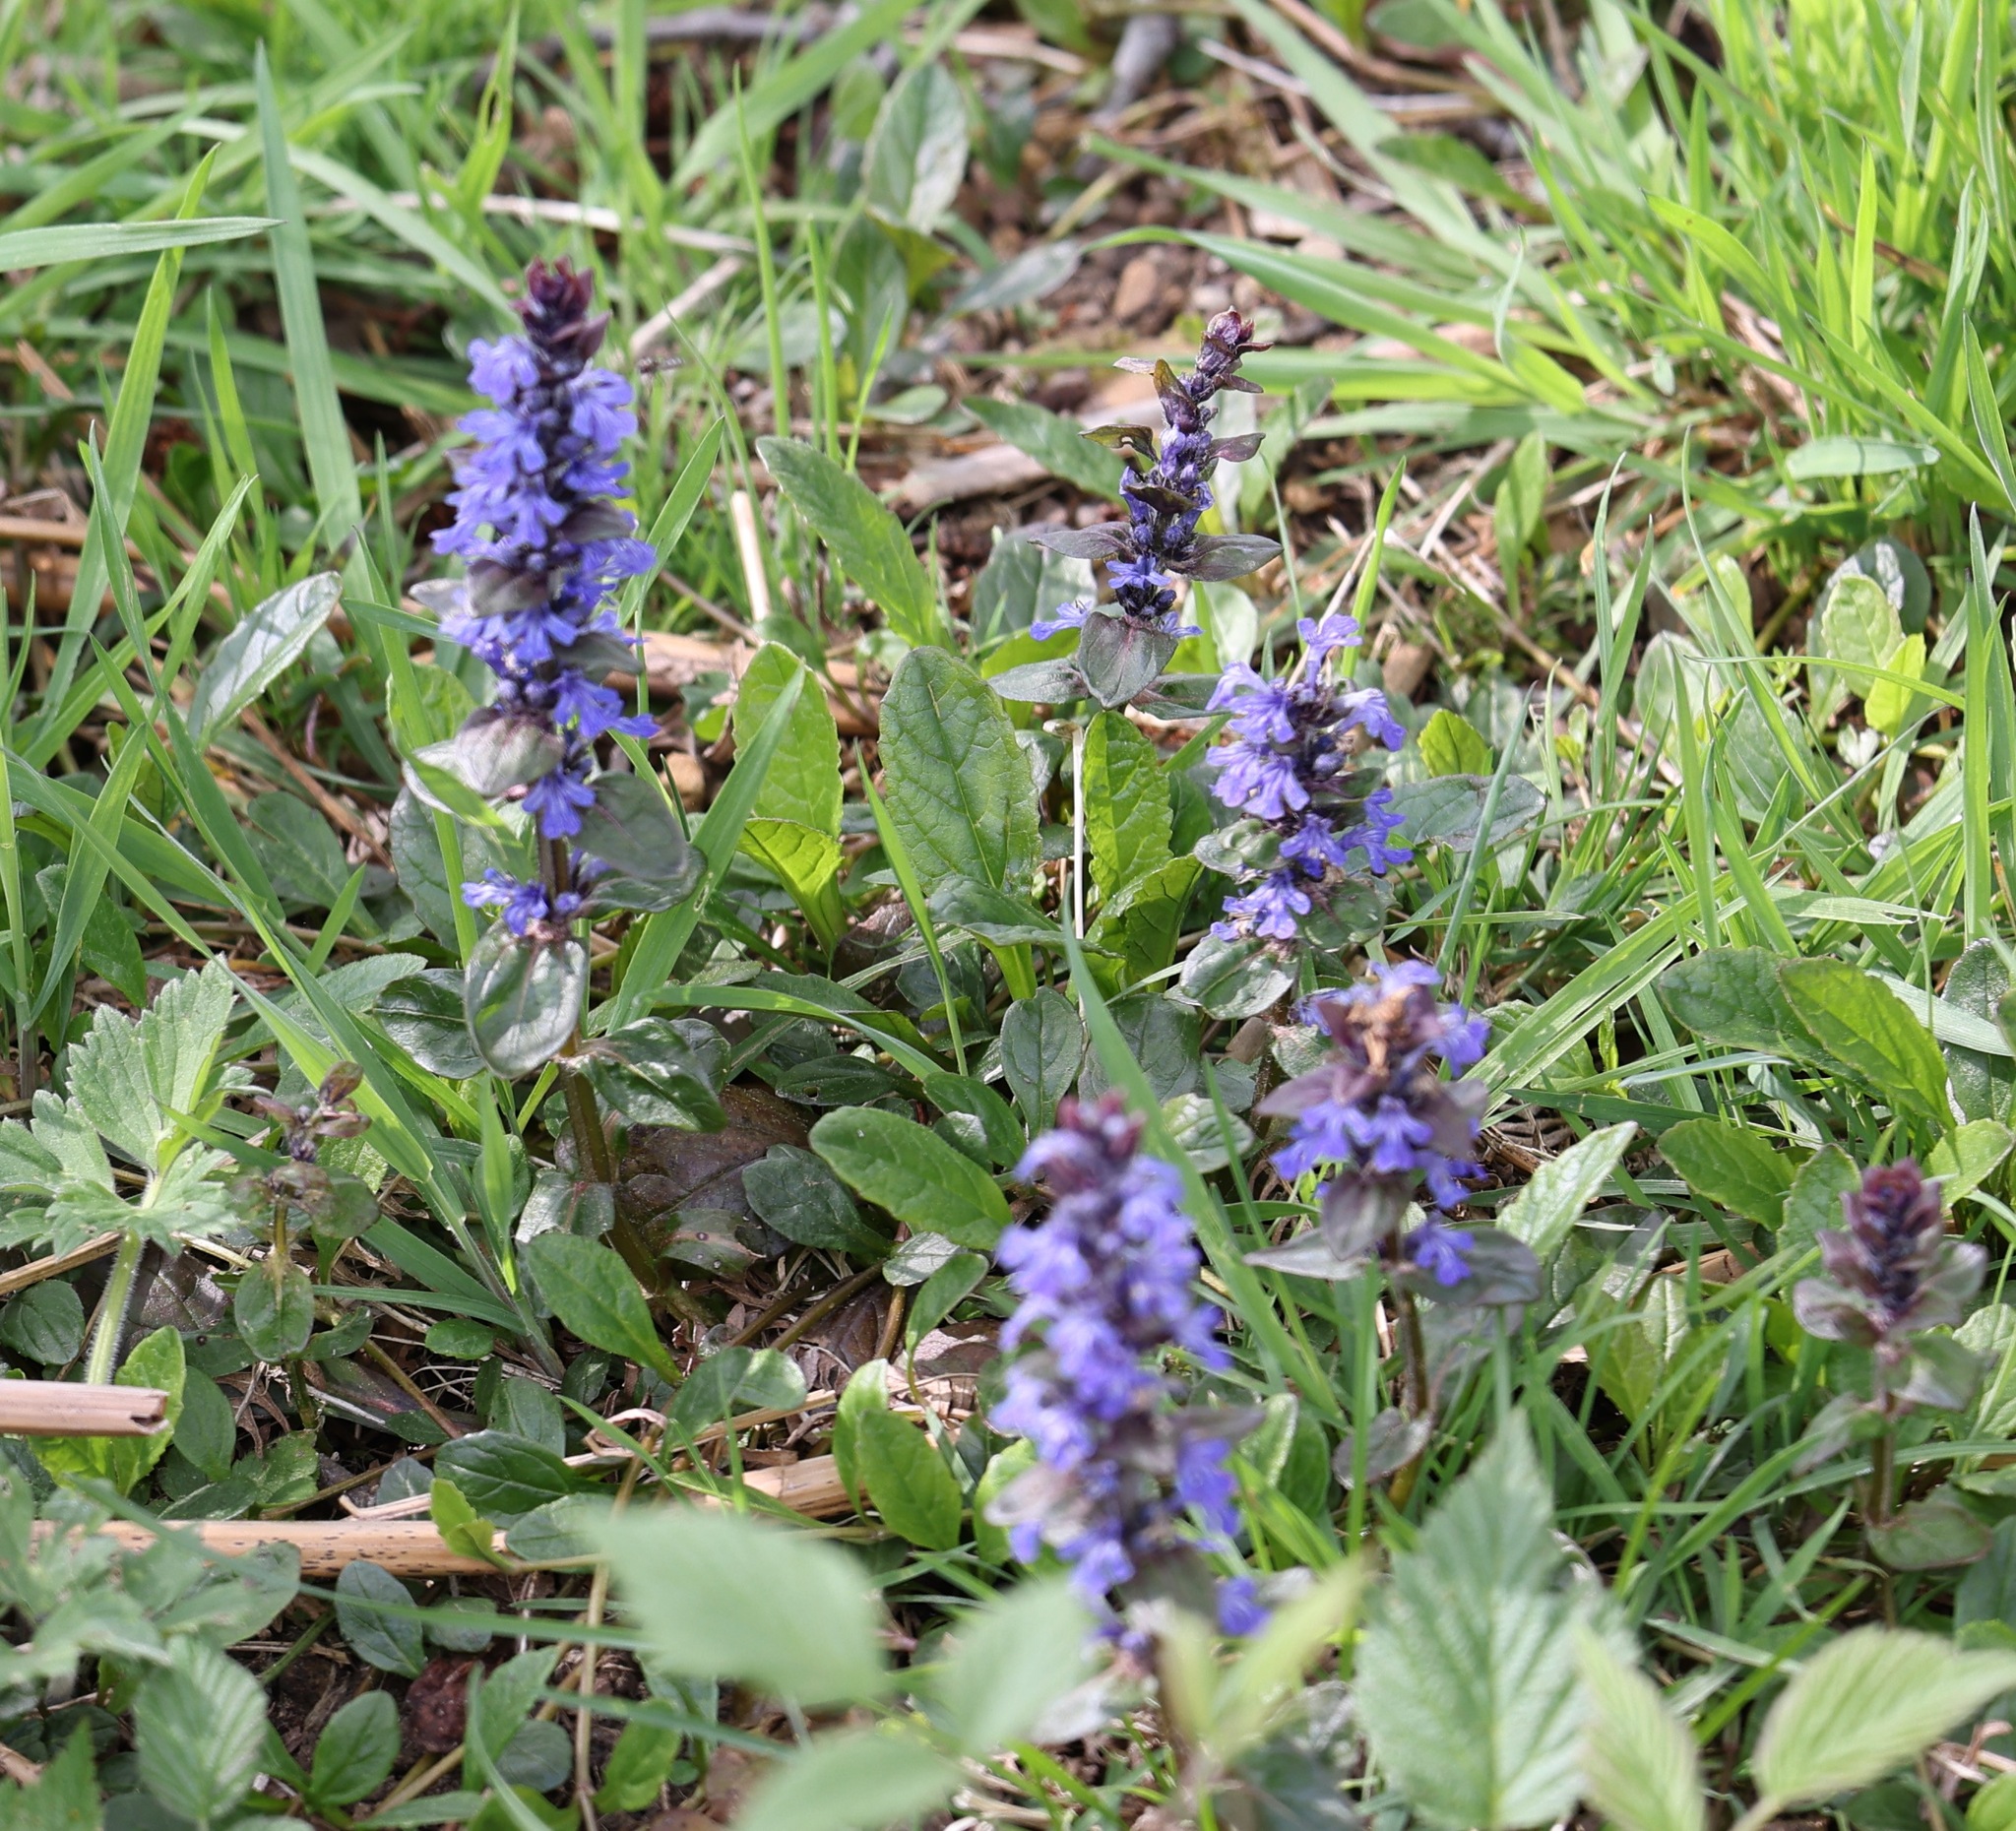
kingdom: Plantae
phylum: Tracheophyta
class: Magnoliopsida
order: Lamiales
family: Lamiaceae
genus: Ajuga
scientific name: Ajuga reptans
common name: Bugle
